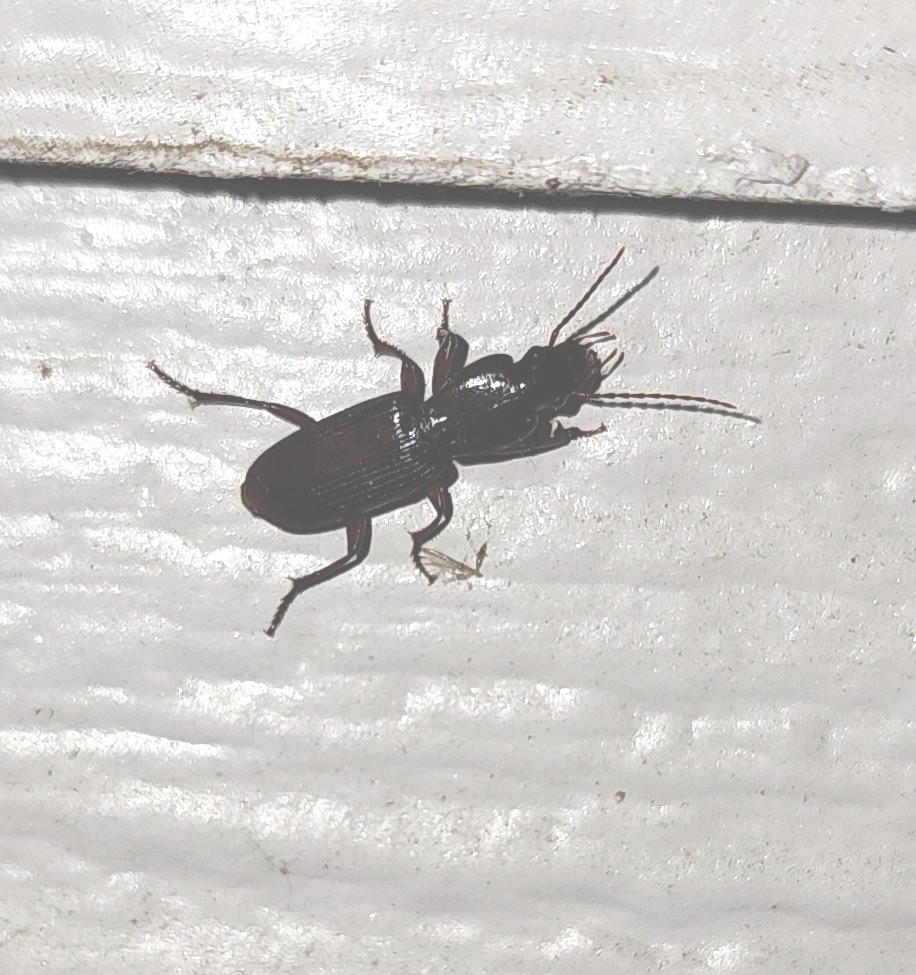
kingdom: Animalia
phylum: Arthropoda
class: Insecta
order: Coleoptera
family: Carabidae
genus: Stenomorphus
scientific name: Stenomorphus californicus
